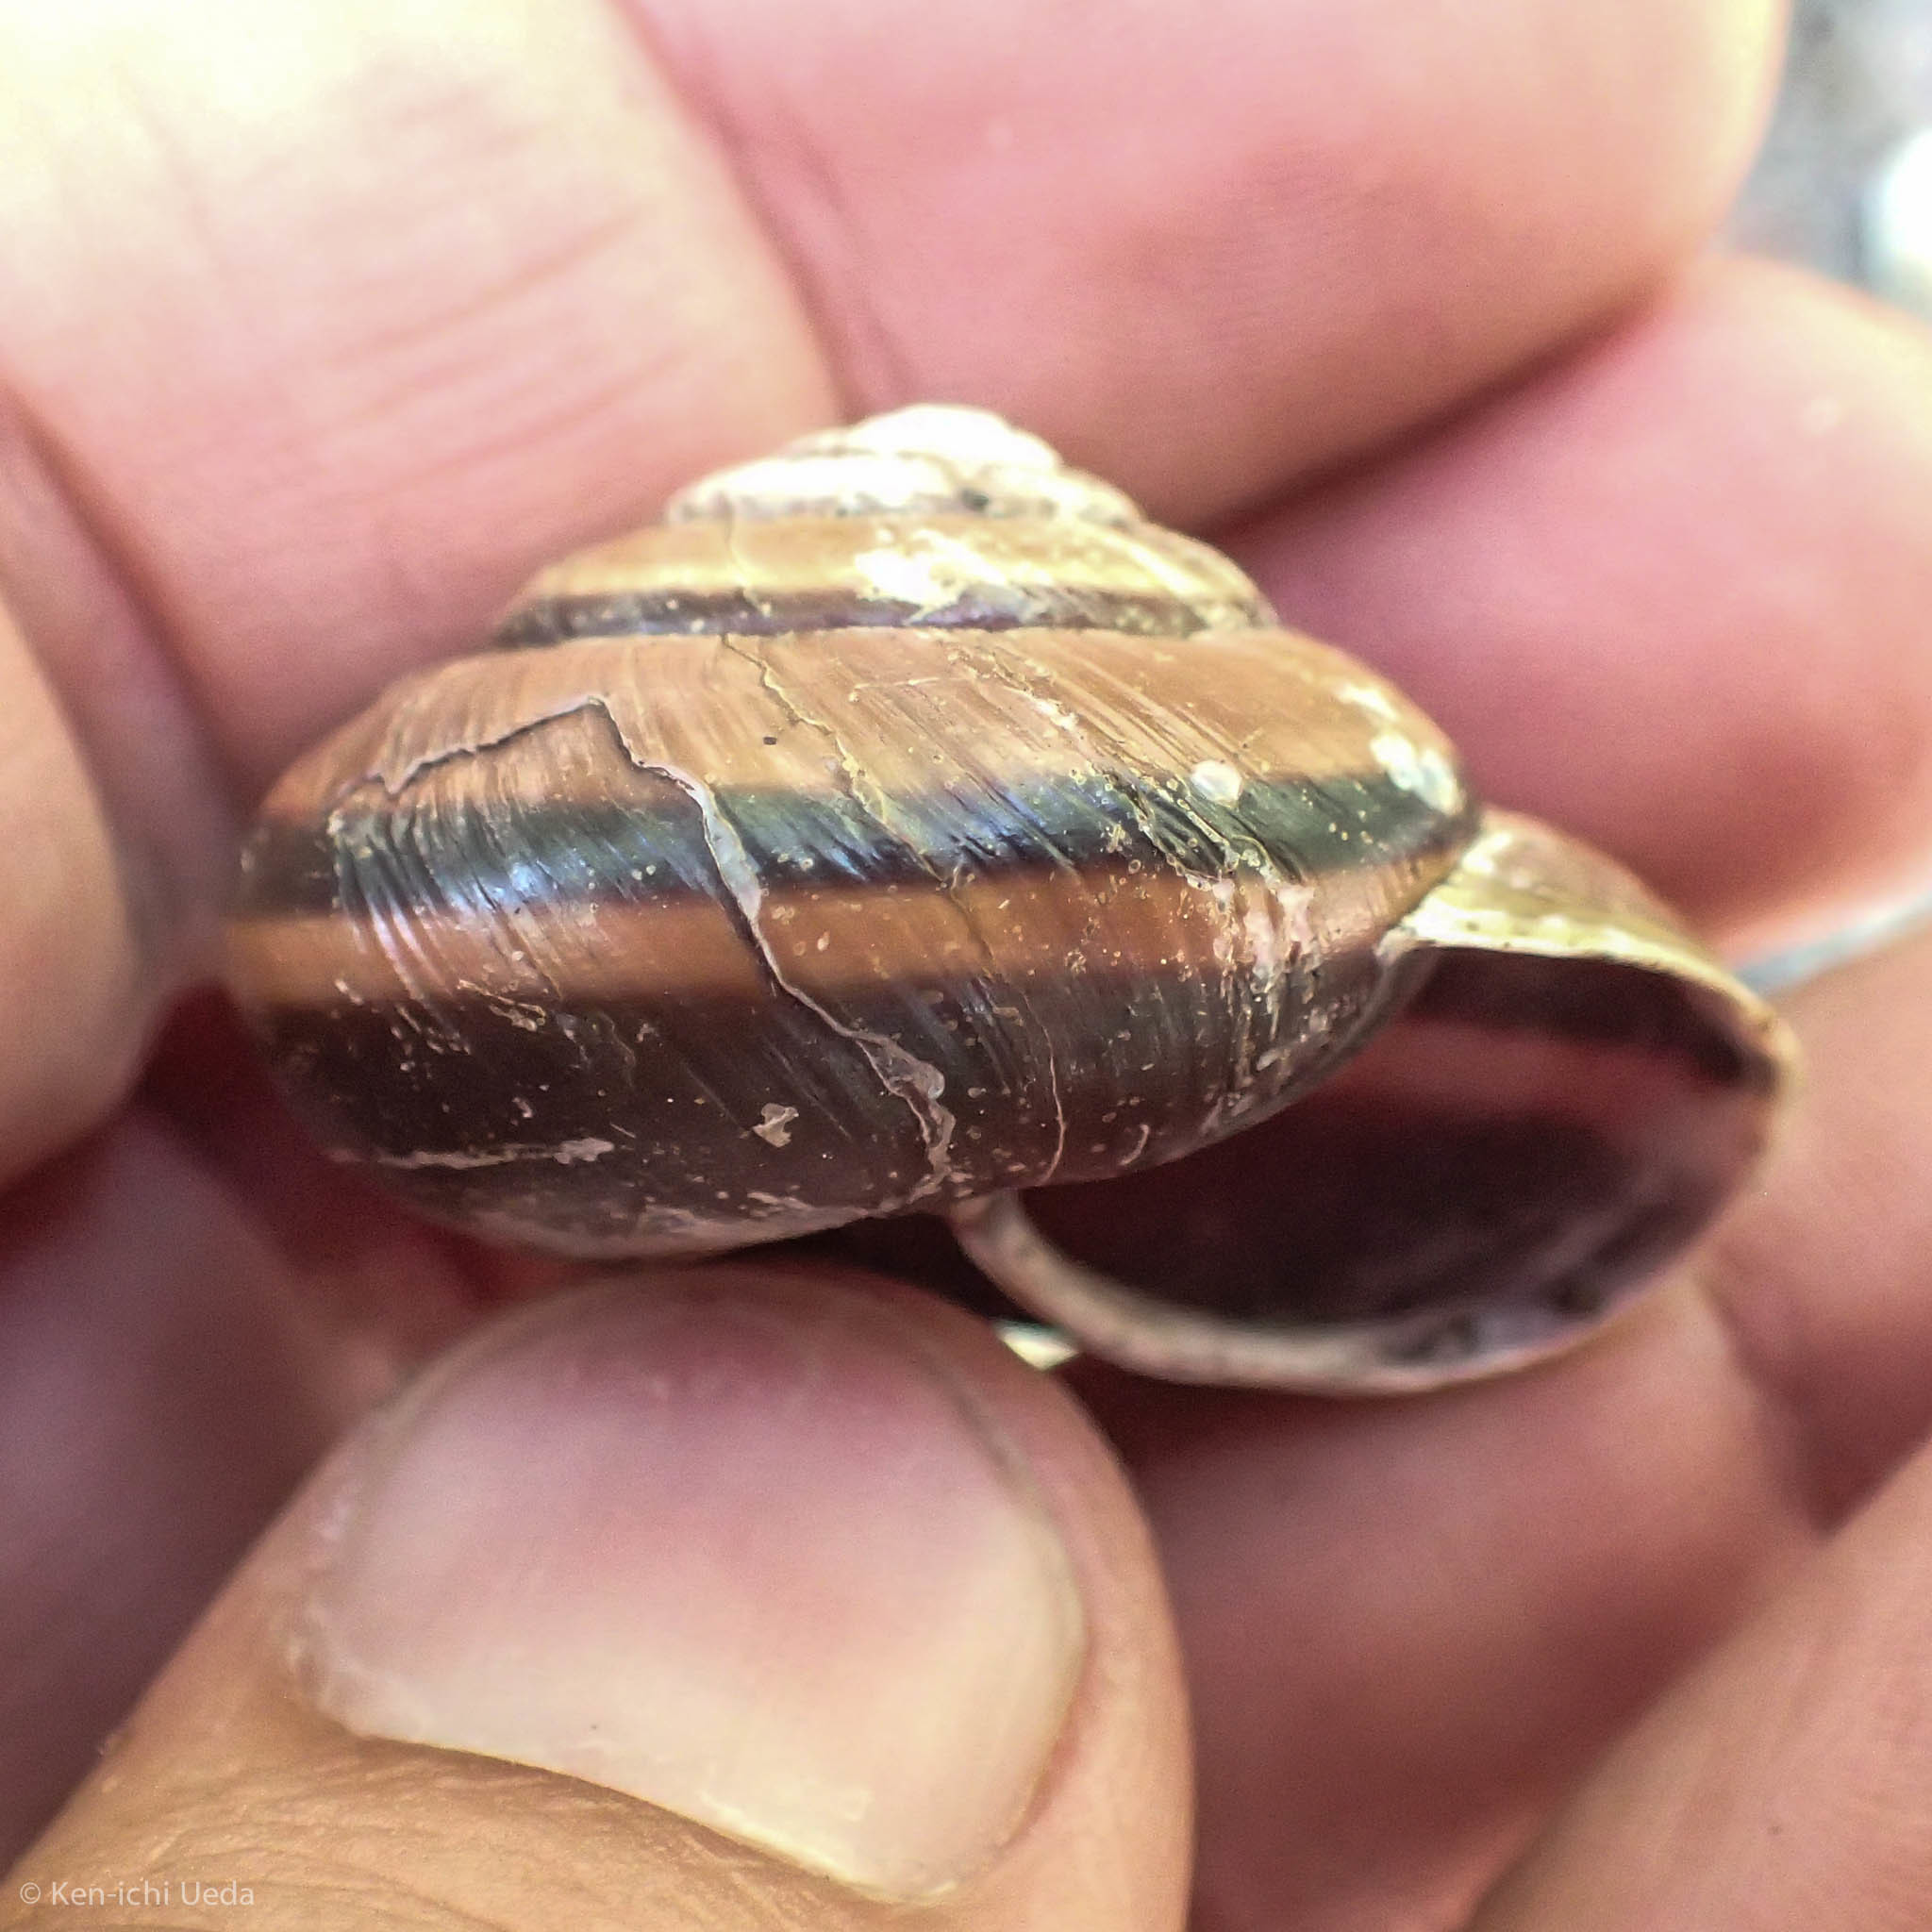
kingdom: Animalia
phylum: Mollusca
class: Gastropoda
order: Stylommatophora
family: Xanthonychidae
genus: Monadenia
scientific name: Monadenia fidelis
